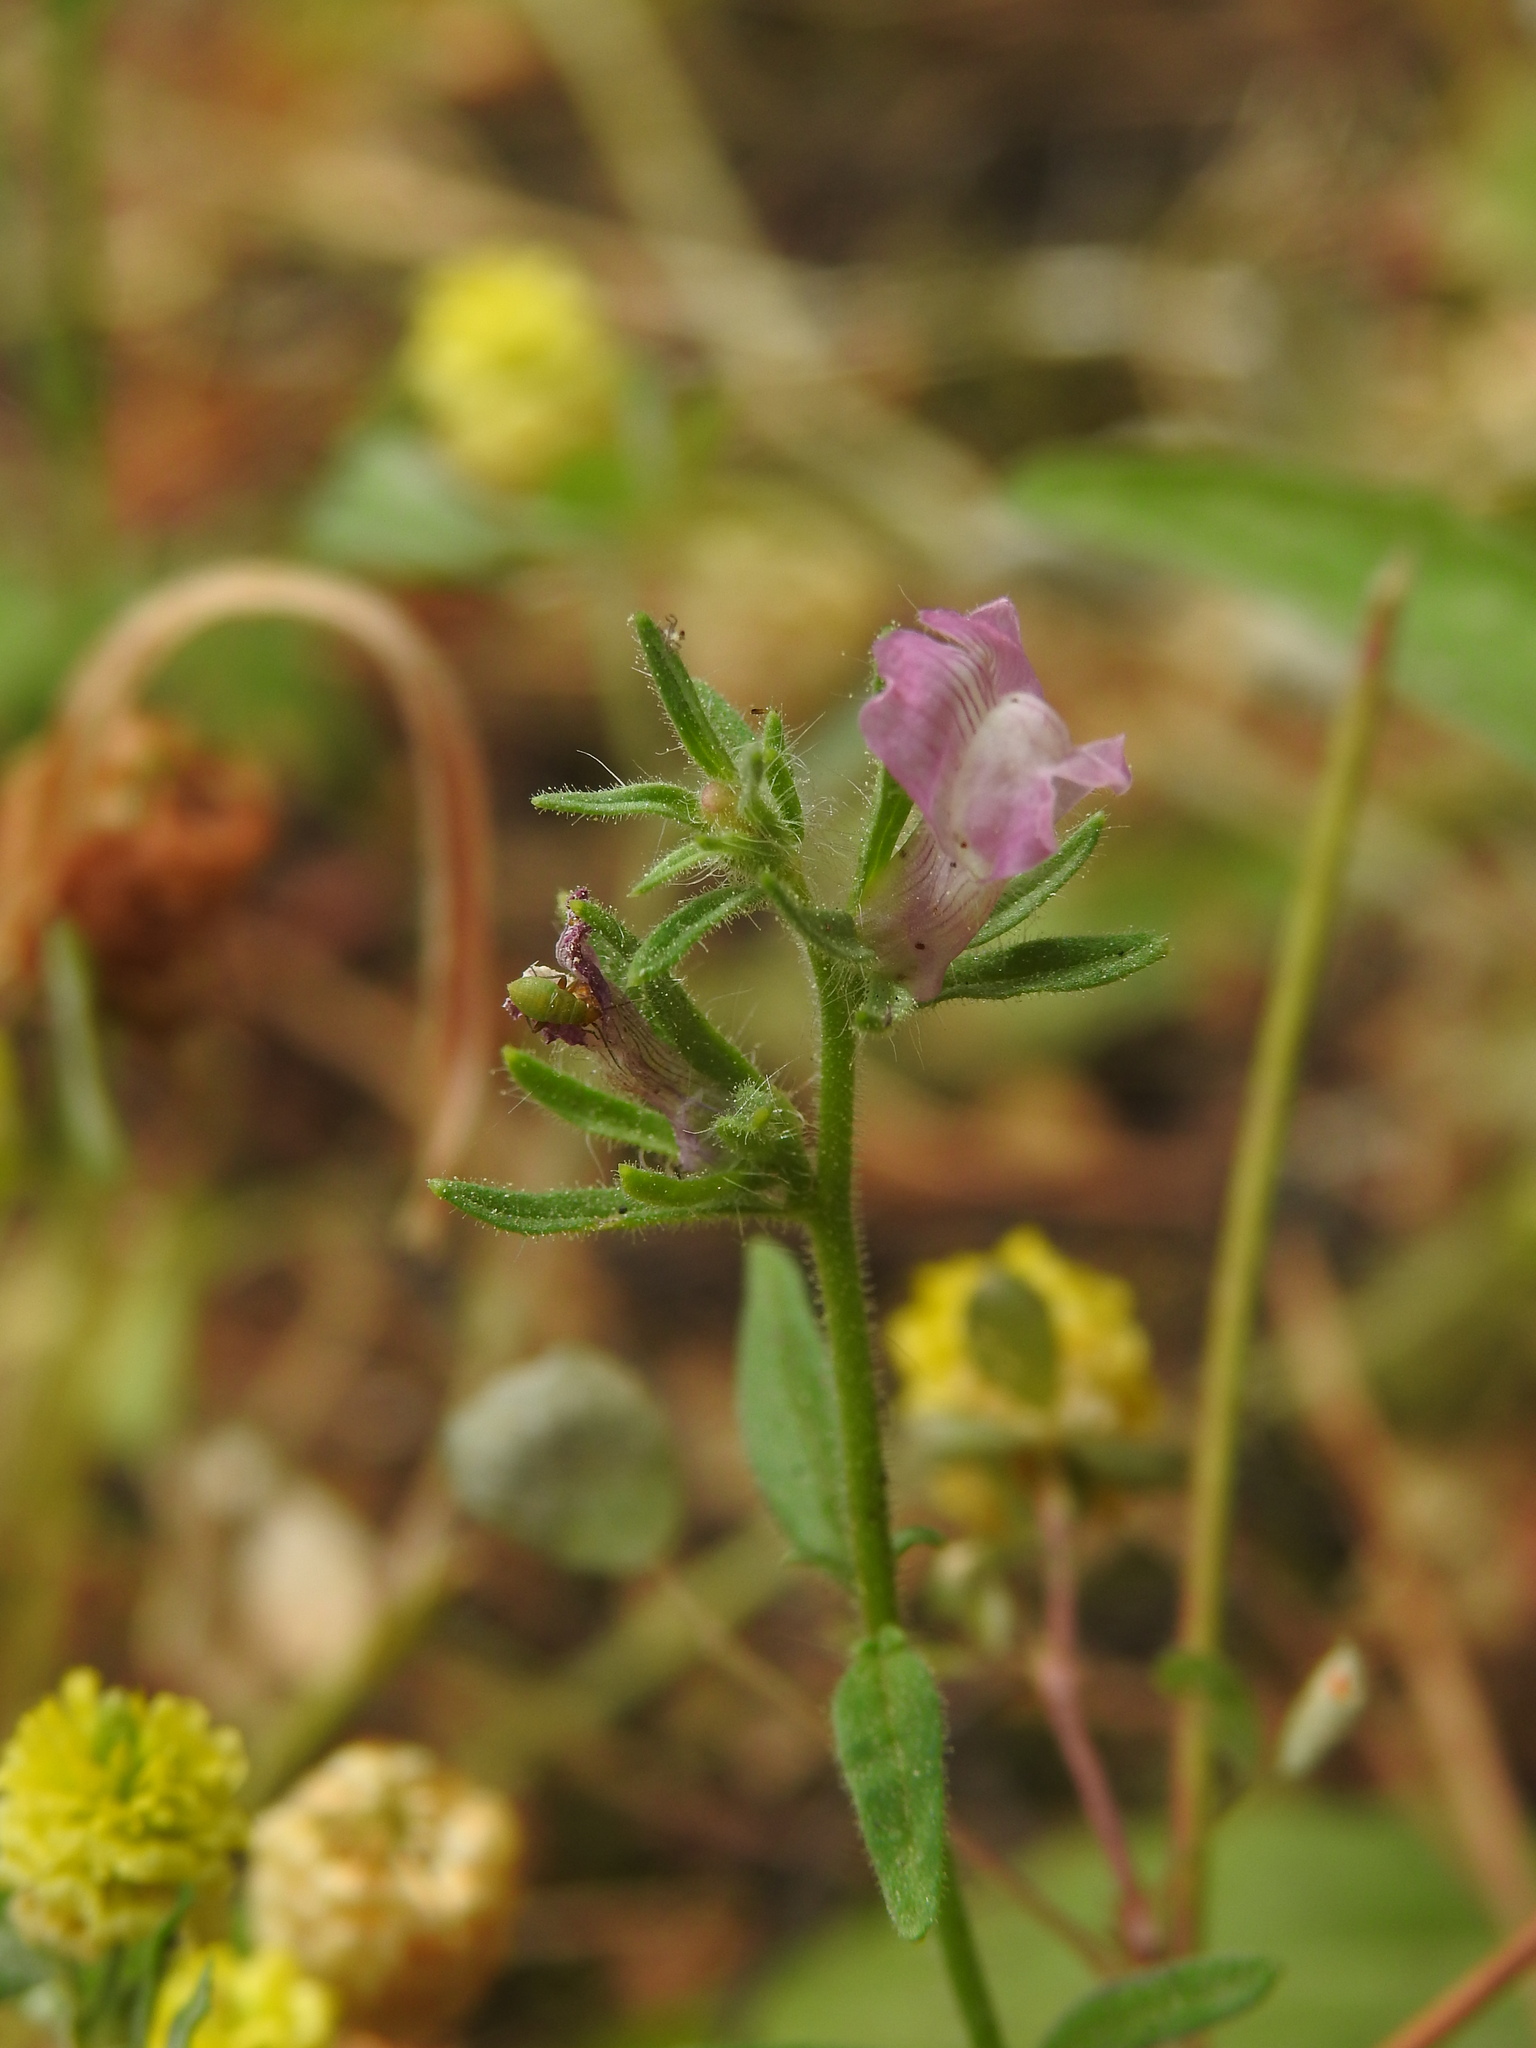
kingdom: Plantae
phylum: Tracheophyta
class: Magnoliopsida
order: Lamiales
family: Plantaginaceae
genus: Misopates
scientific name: Misopates orontium
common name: Weasel's-snout
